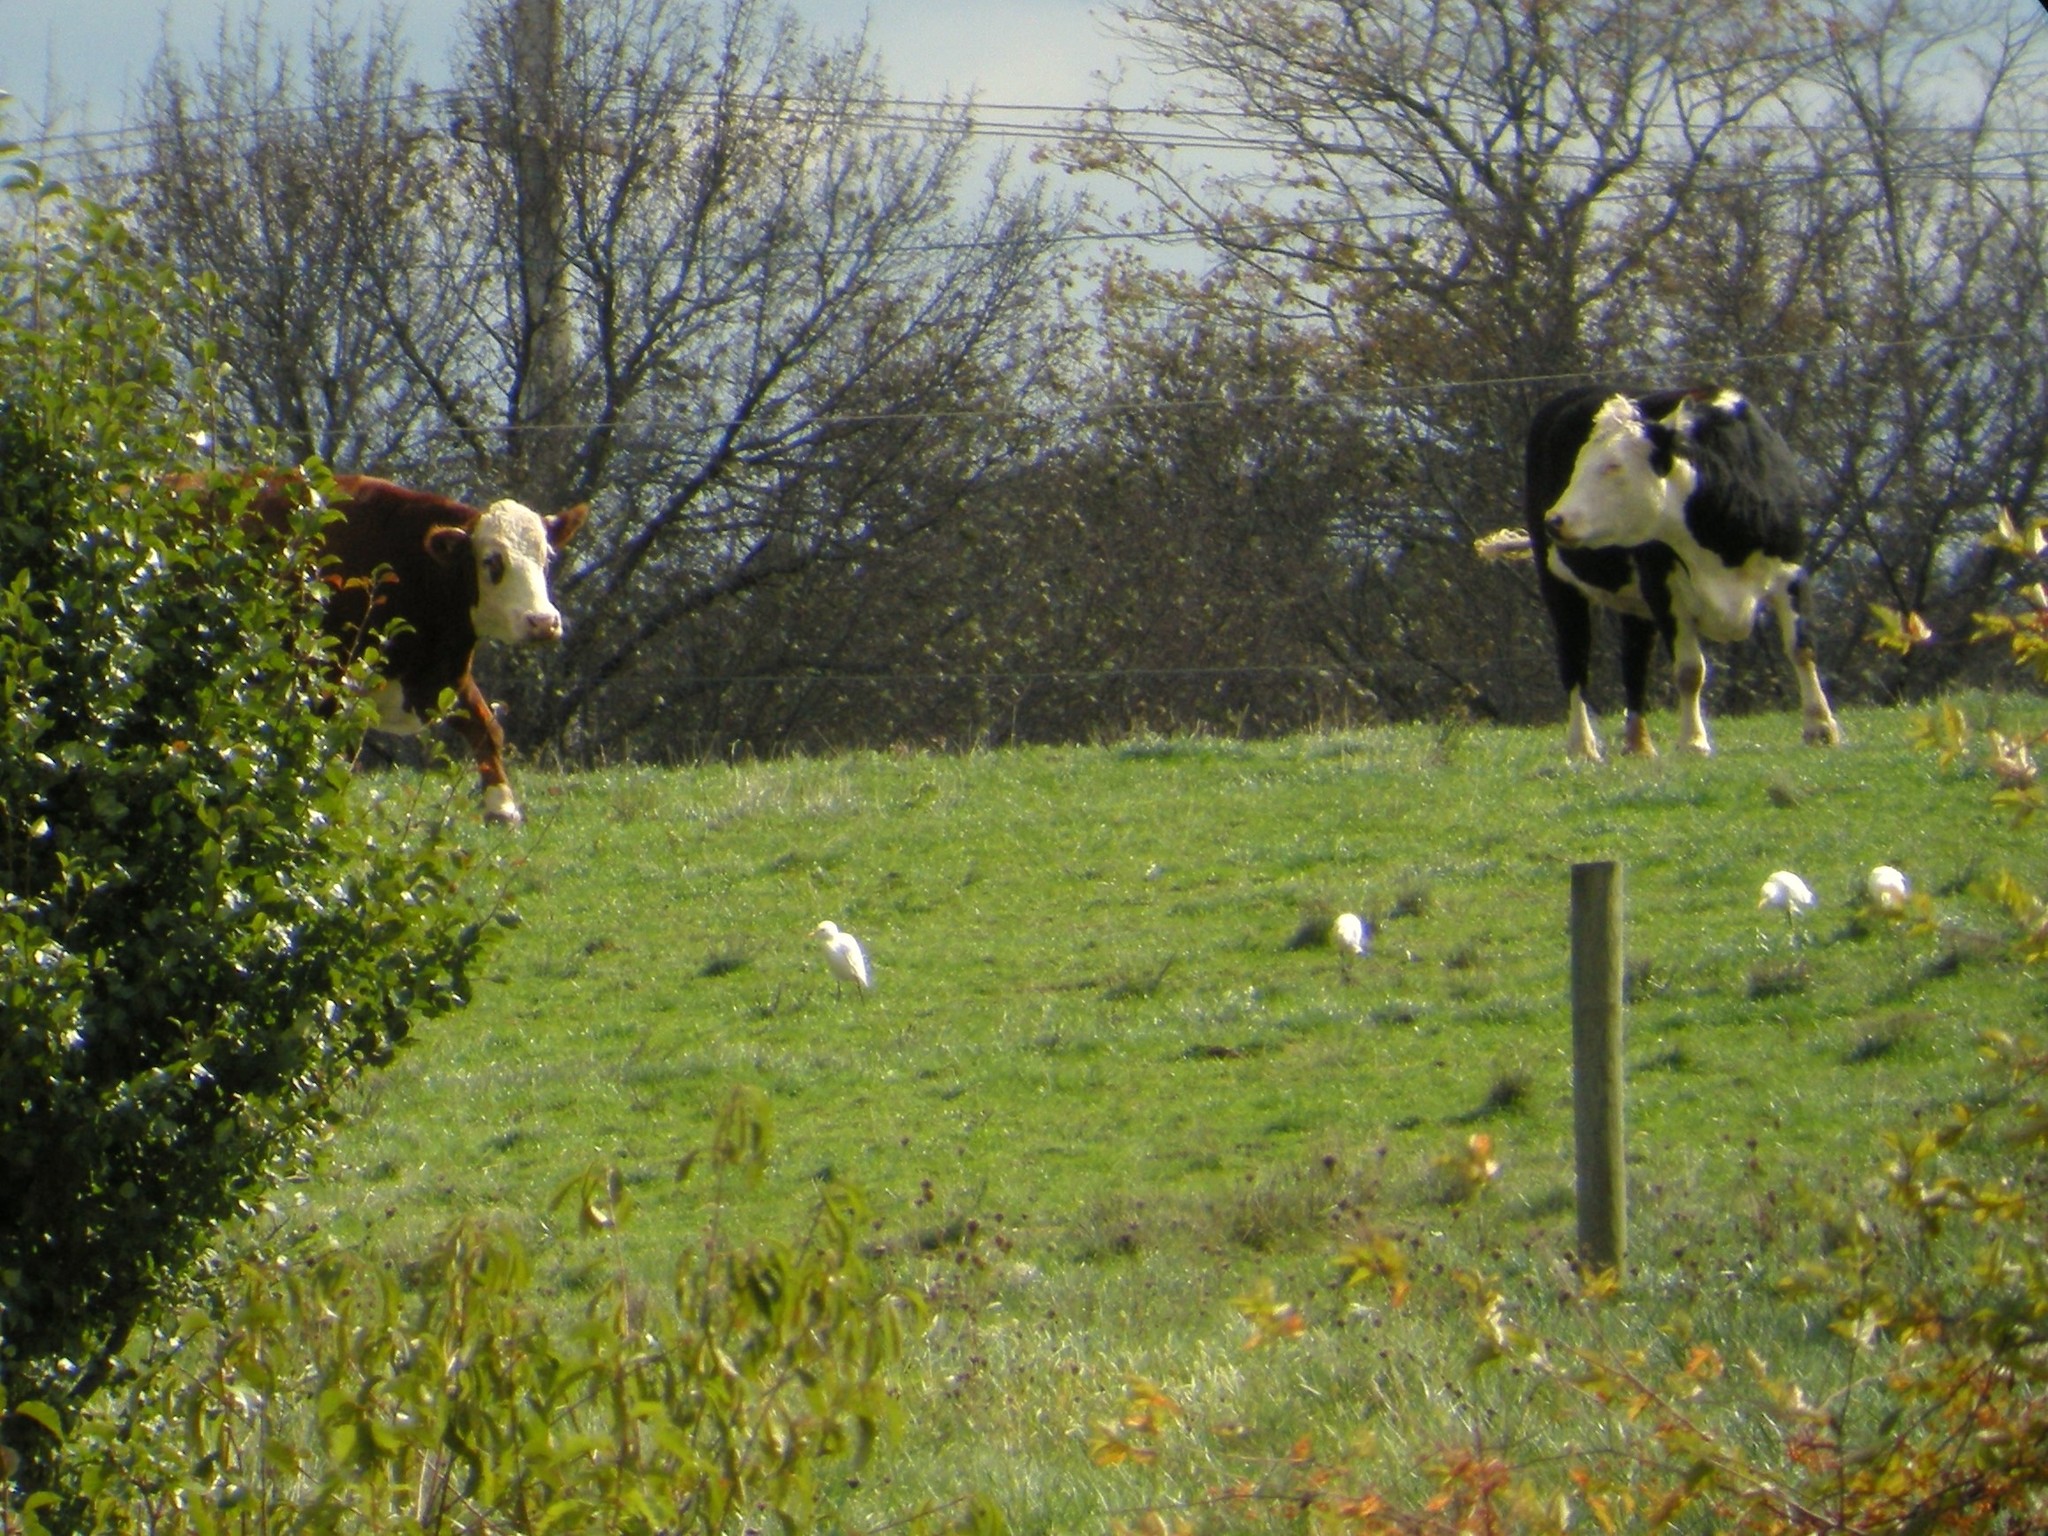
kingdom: Animalia
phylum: Chordata
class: Aves
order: Pelecaniformes
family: Ardeidae
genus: Bubulcus
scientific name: Bubulcus ibis
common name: Cattle egret
